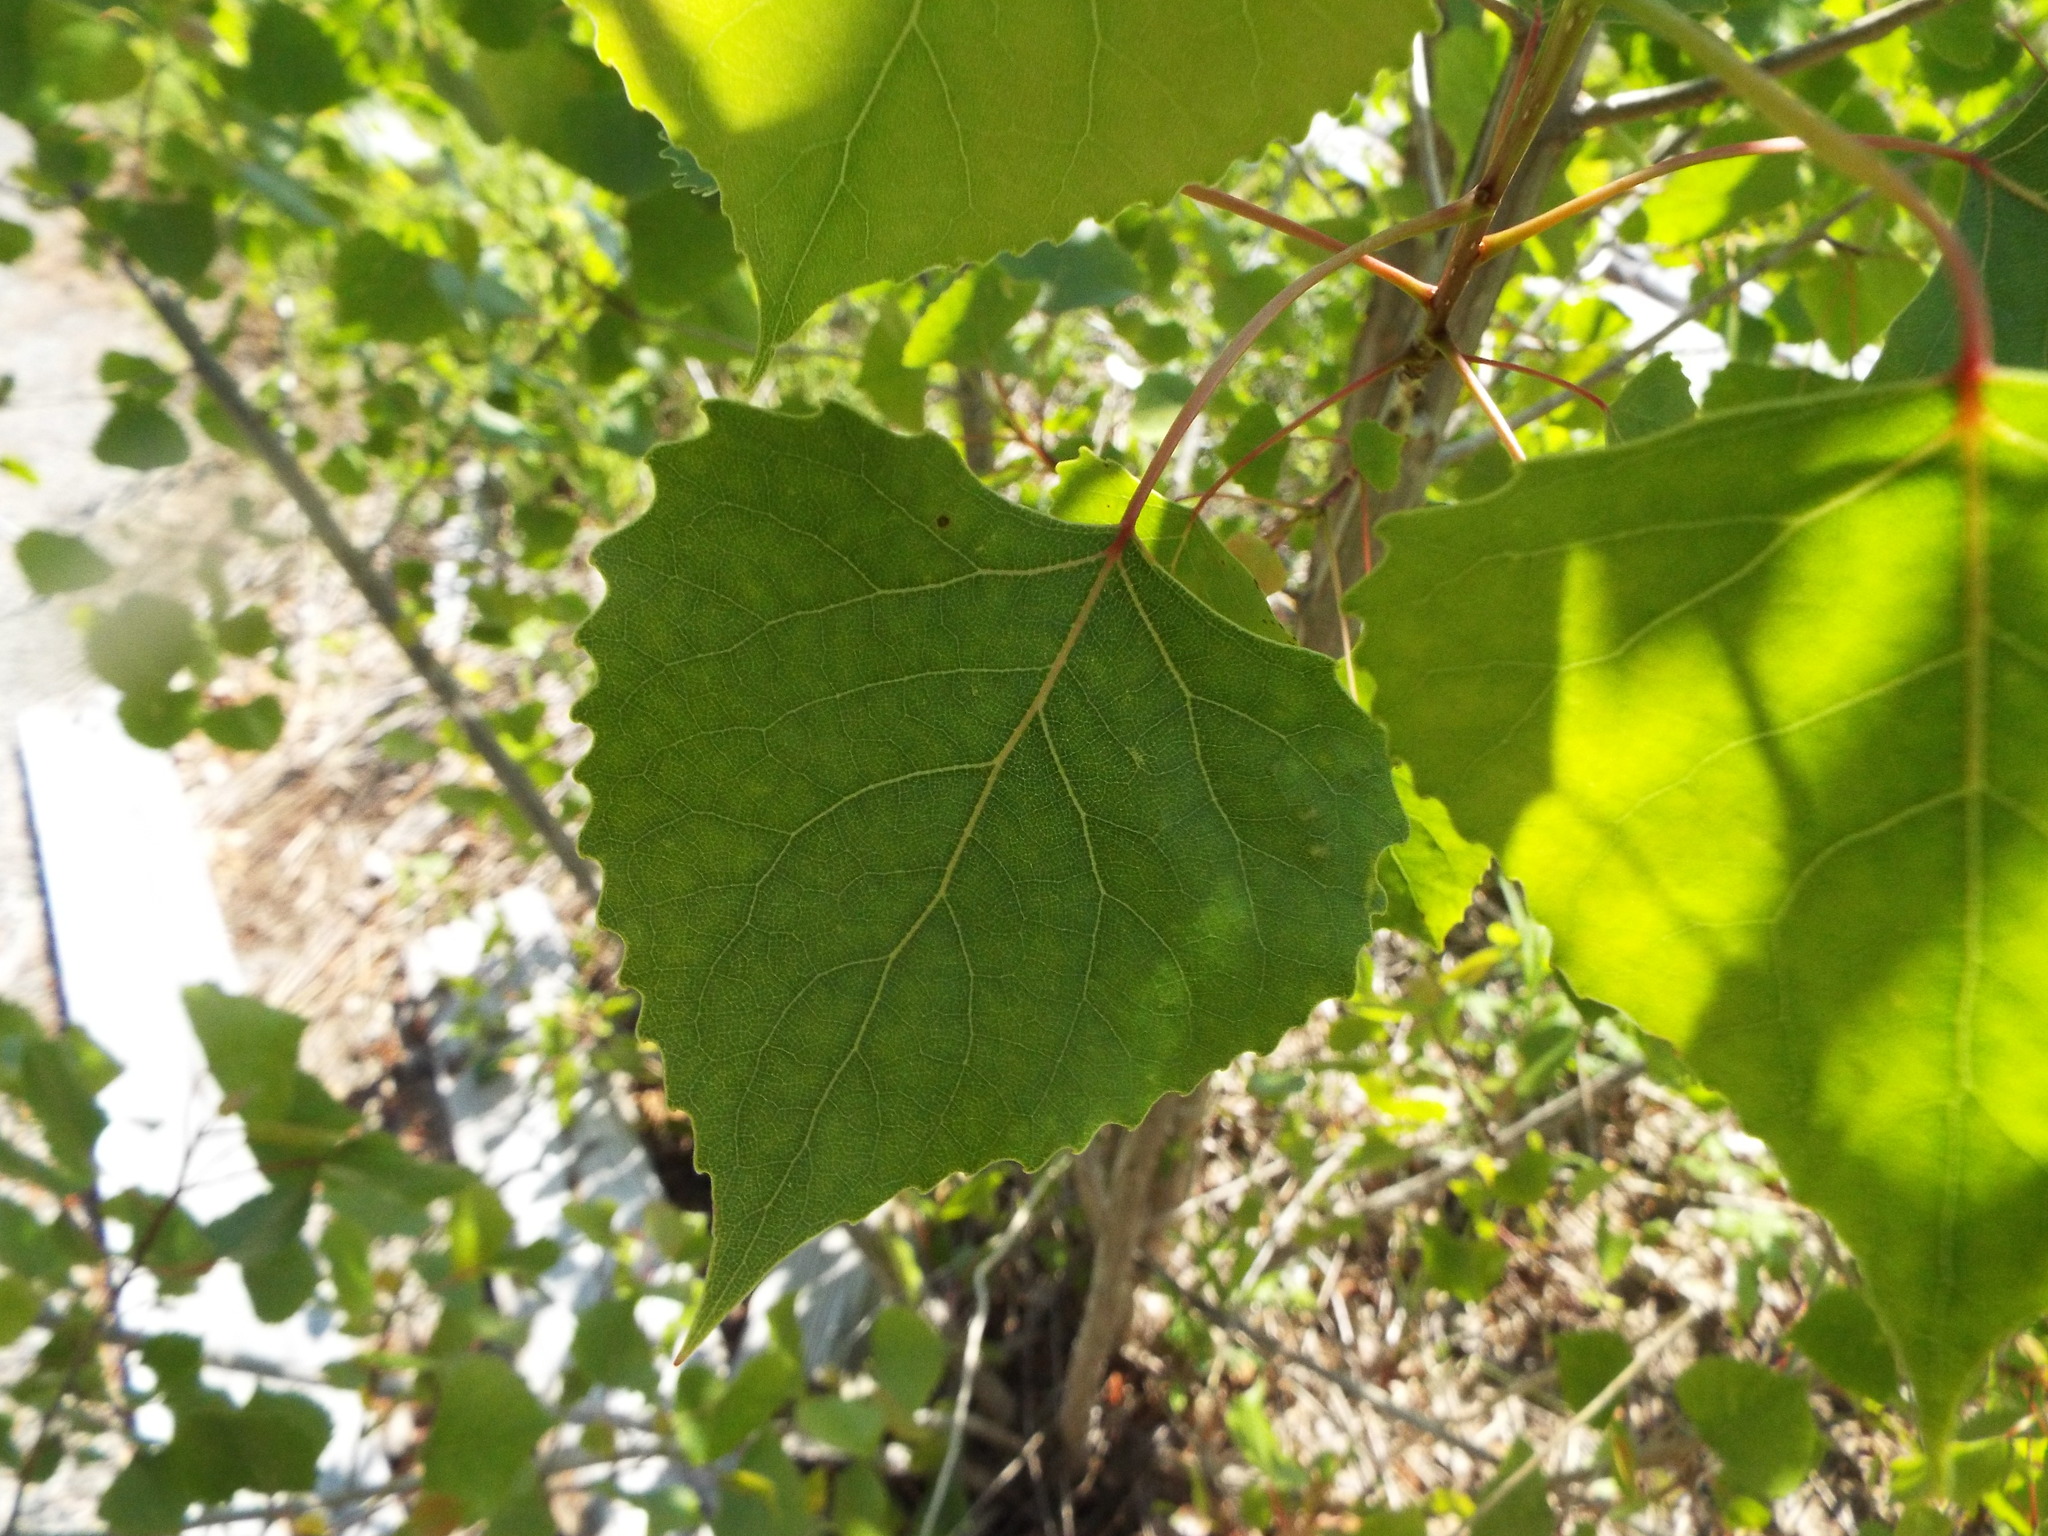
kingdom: Plantae
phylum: Tracheophyta
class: Magnoliopsida
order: Malpighiales
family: Salicaceae
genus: Populus
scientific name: Populus deltoides
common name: Eastern cottonwood
